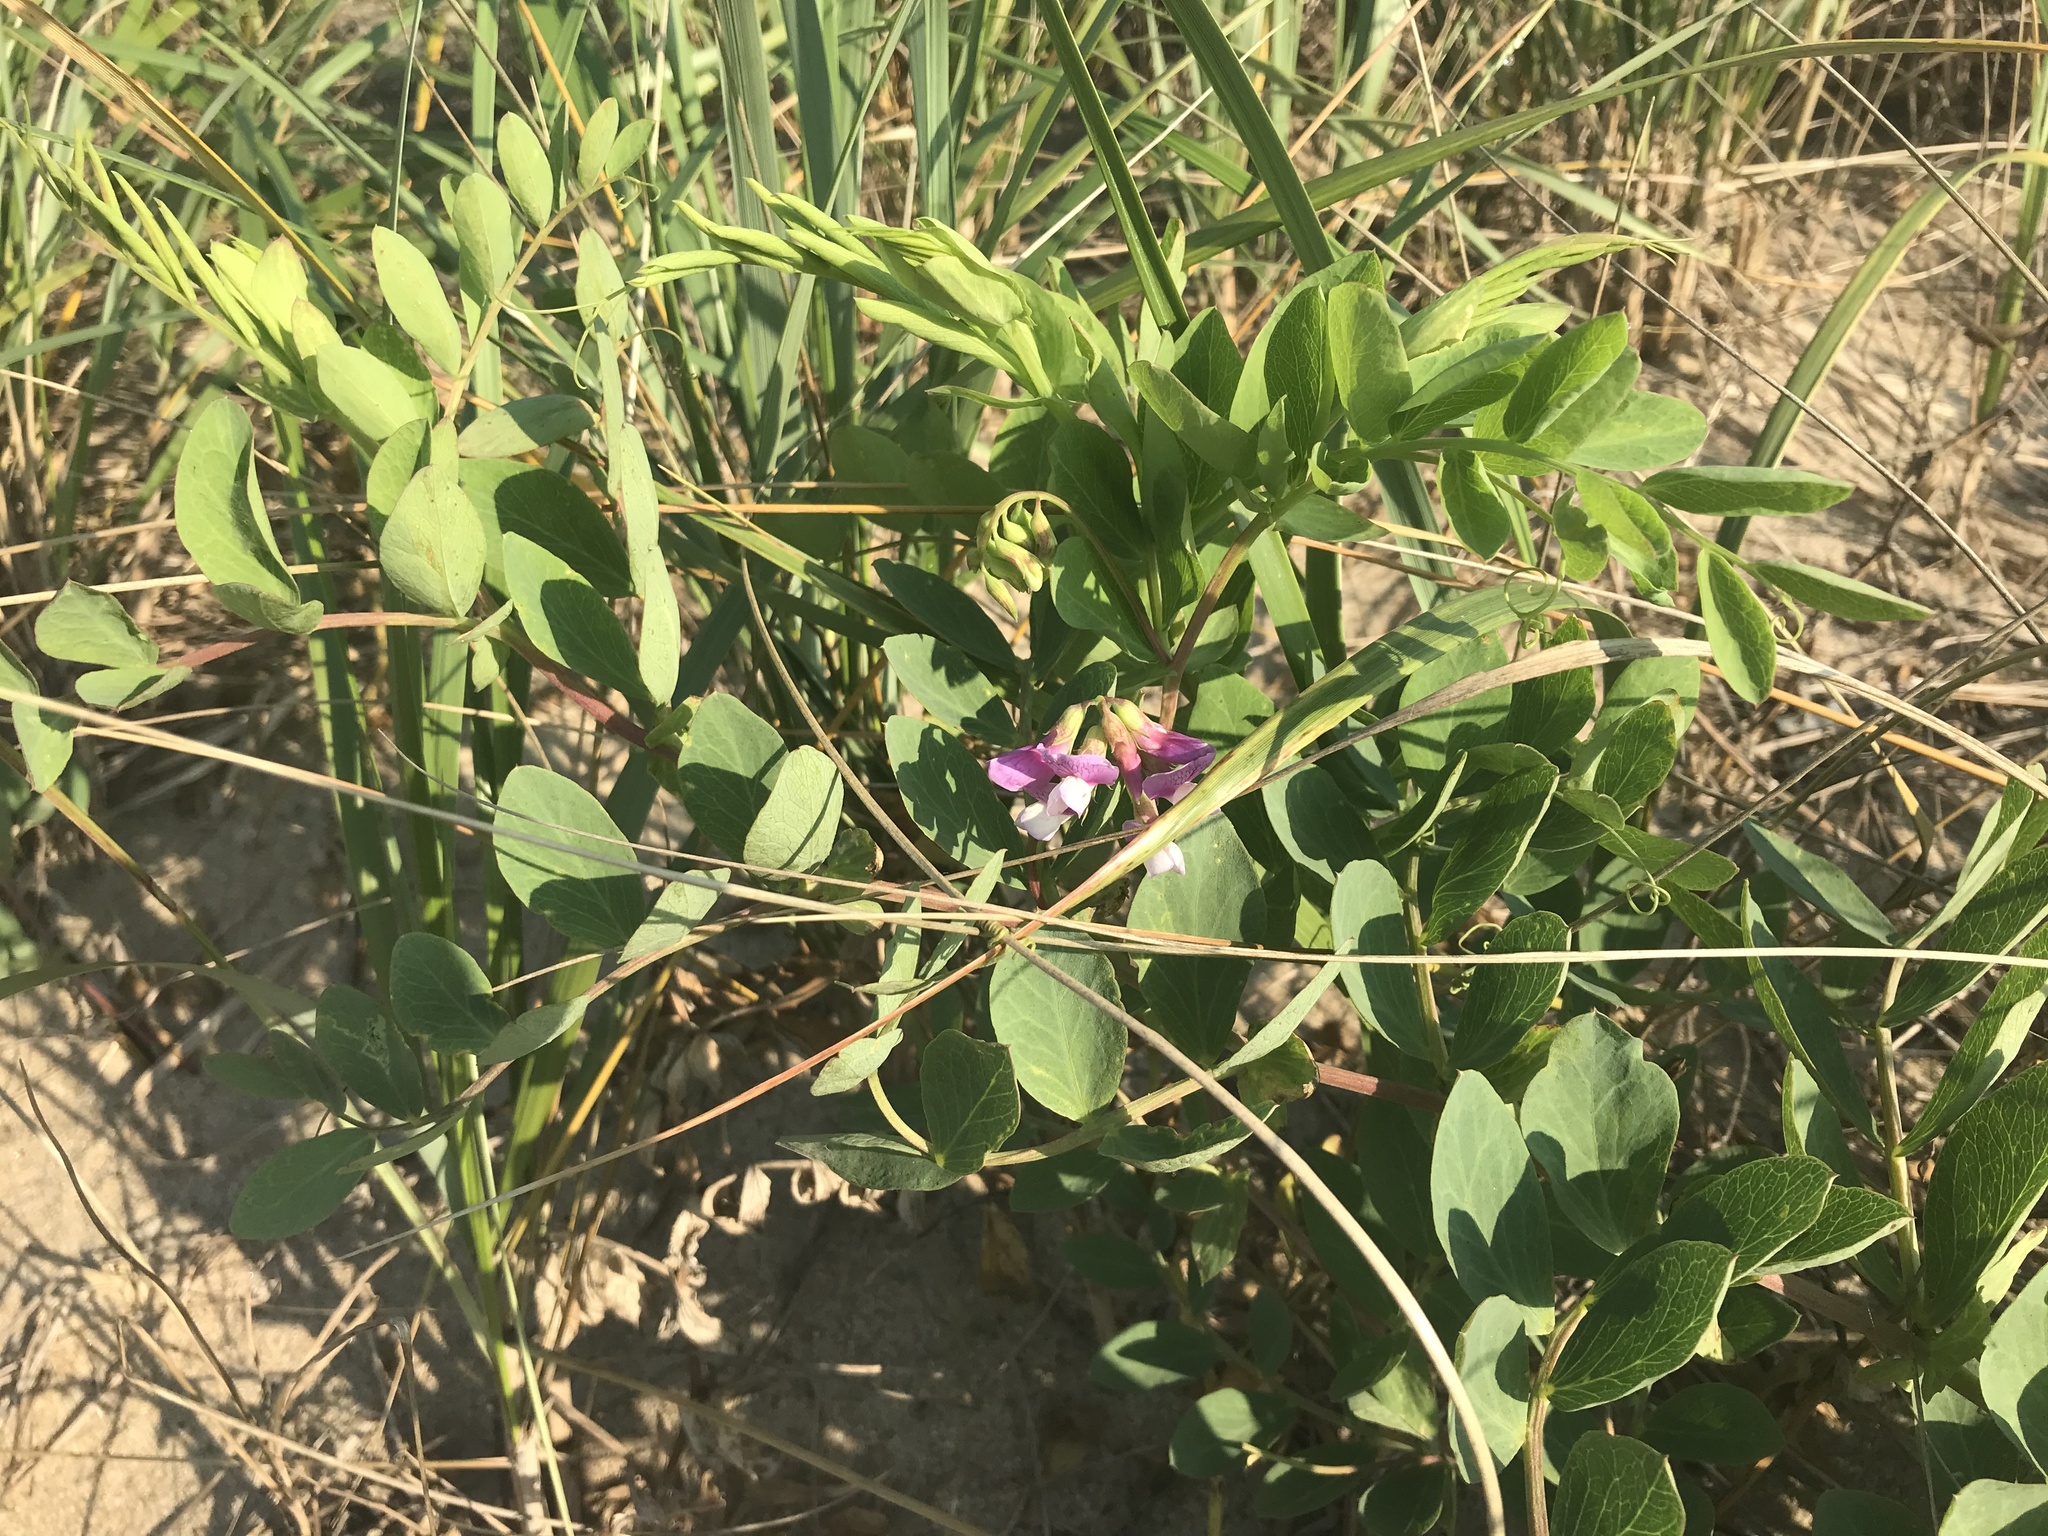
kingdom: Plantae
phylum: Tracheophyta
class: Magnoliopsida
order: Fabales
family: Fabaceae
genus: Lathyrus
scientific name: Lathyrus japonicus
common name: Sea pea
